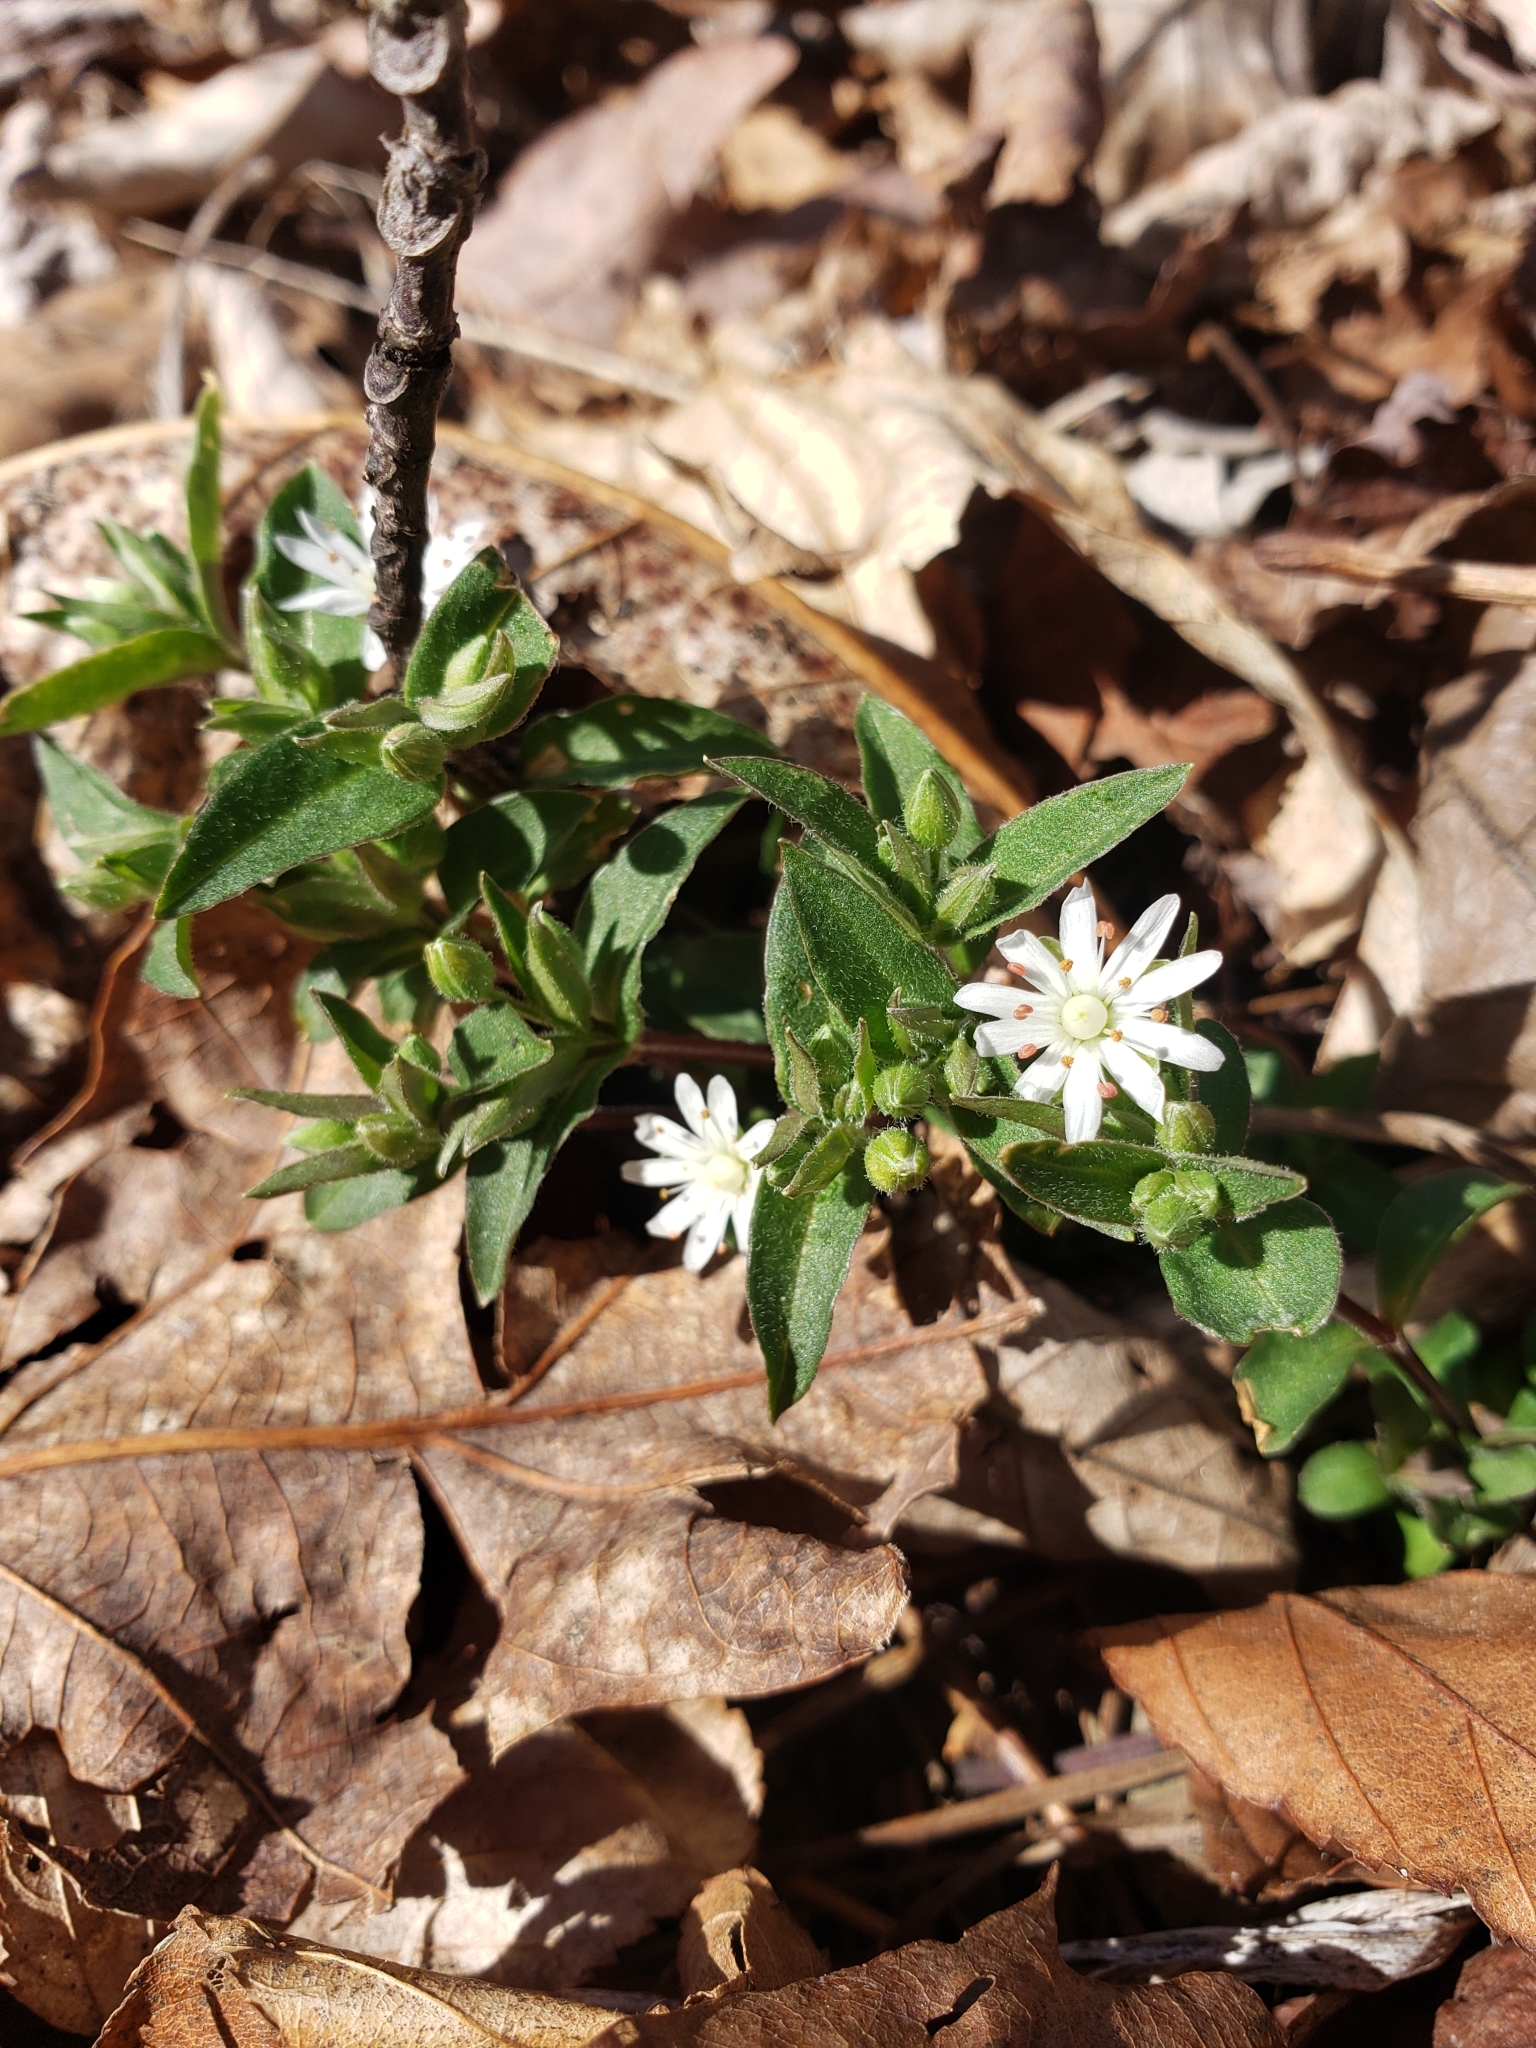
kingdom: Plantae
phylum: Tracheophyta
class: Magnoliopsida
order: Caryophyllales
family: Caryophyllaceae
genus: Stellaria
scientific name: Stellaria pubera
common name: Star chickweed
